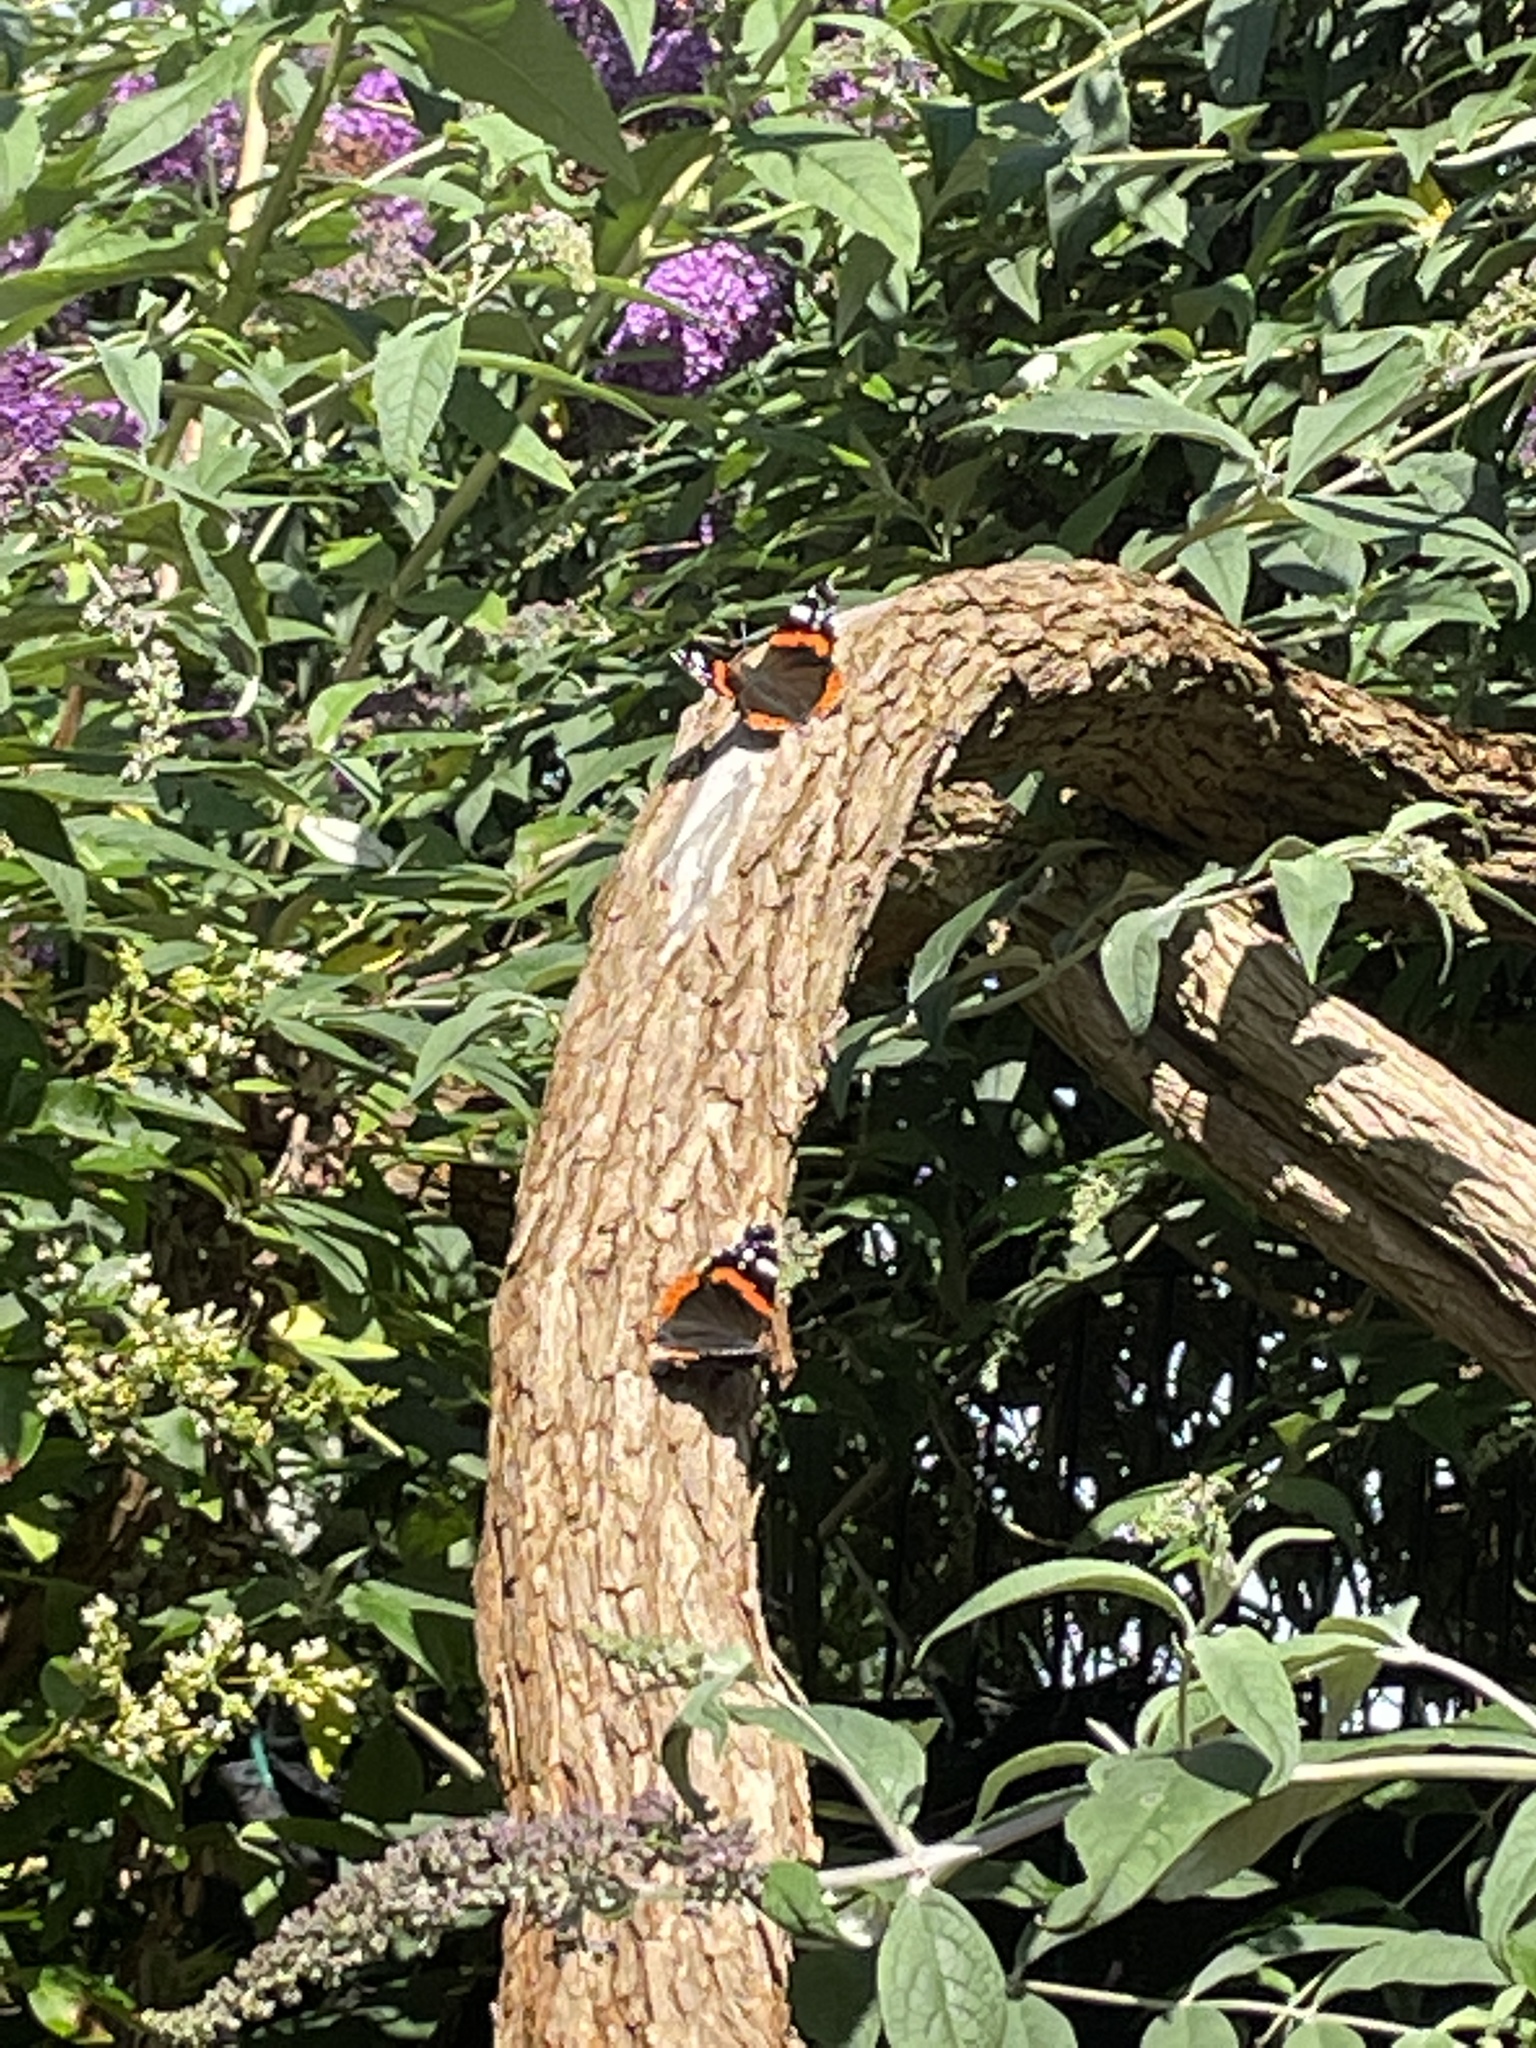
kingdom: Animalia
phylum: Arthropoda
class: Insecta
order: Lepidoptera
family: Nymphalidae
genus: Vanessa
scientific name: Vanessa atalanta
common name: Red admiral
